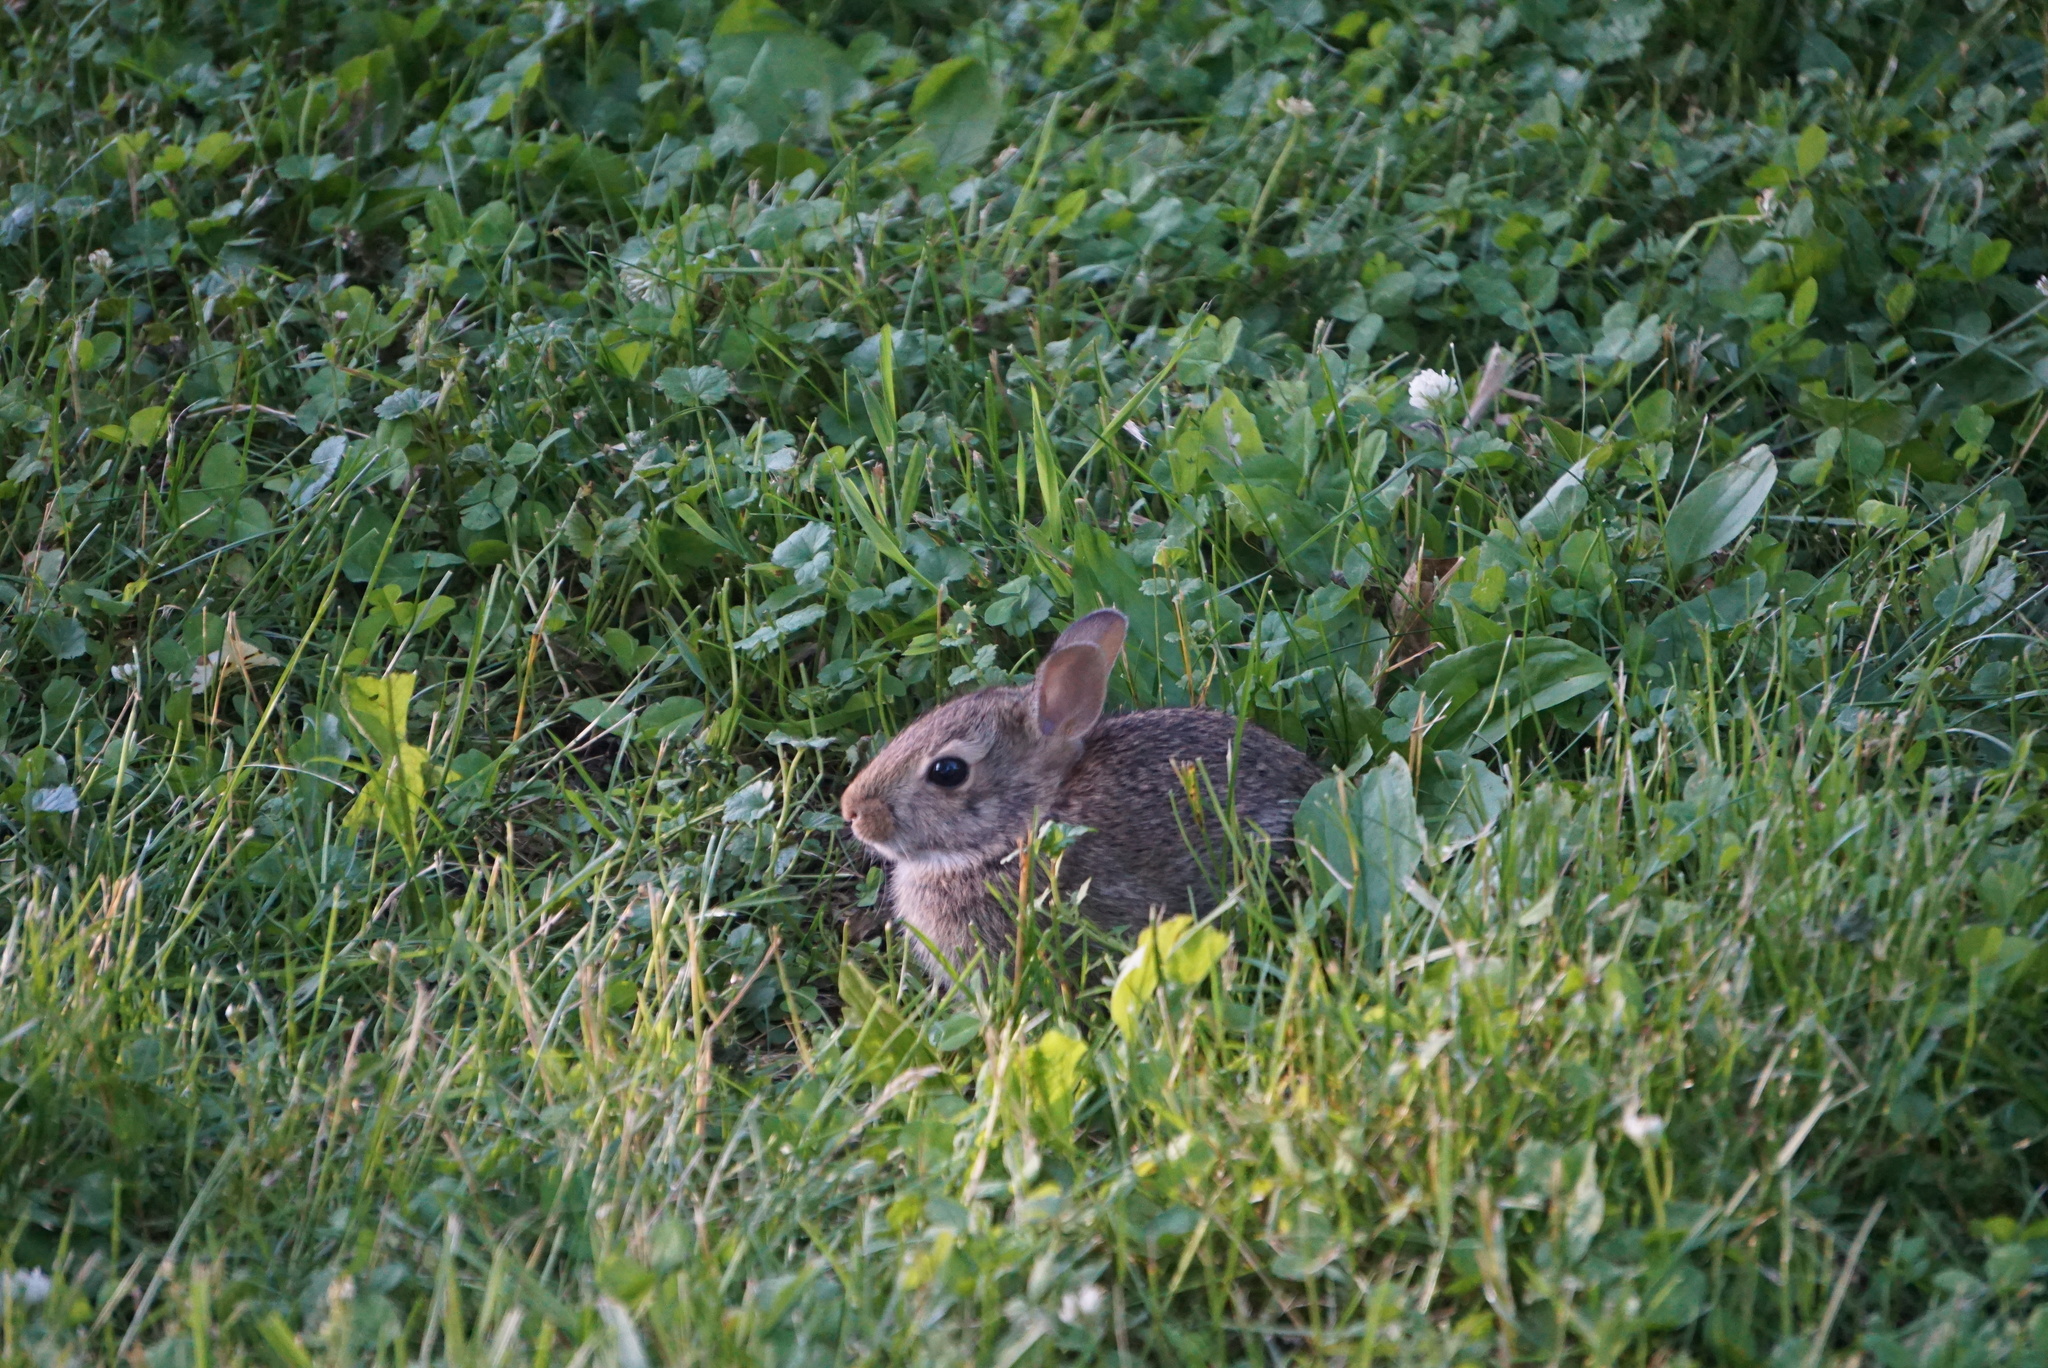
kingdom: Animalia
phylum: Chordata
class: Mammalia
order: Lagomorpha
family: Leporidae
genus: Sylvilagus
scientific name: Sylvilagus floridanus
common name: Eastern cottontail
